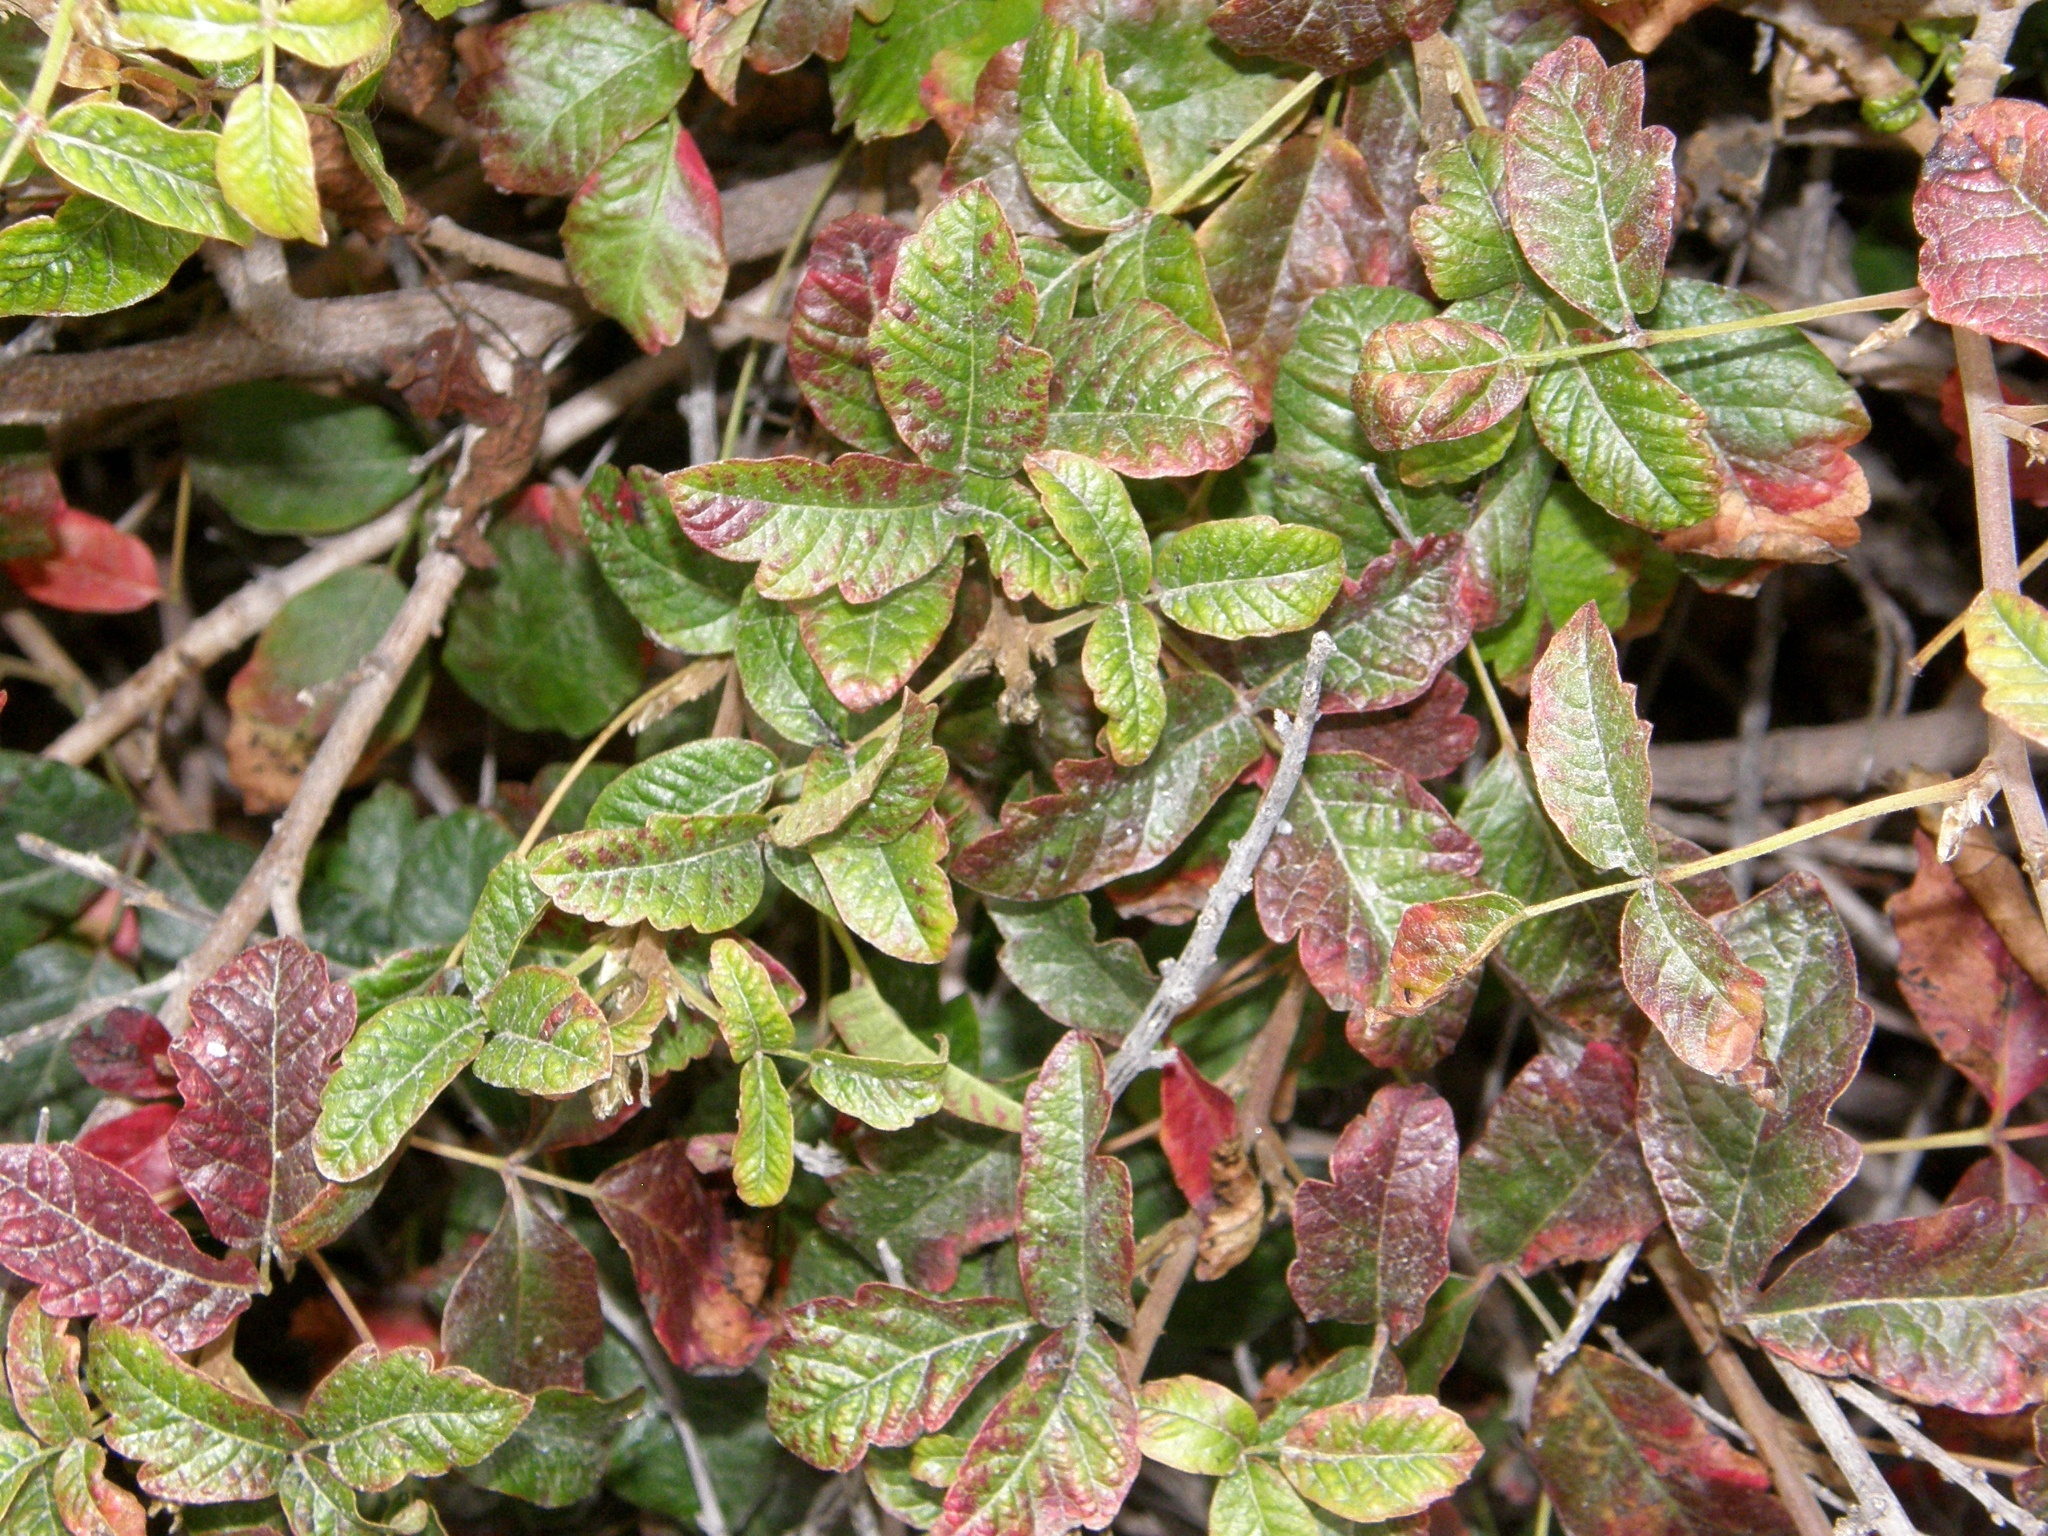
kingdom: Plantae
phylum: Tracheophyta
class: Magnoliopsida
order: Sapindales
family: Anacardiaceae
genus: Toxicodendron
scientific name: Toxicodendron diversilobum
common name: Pacific poison-oak
